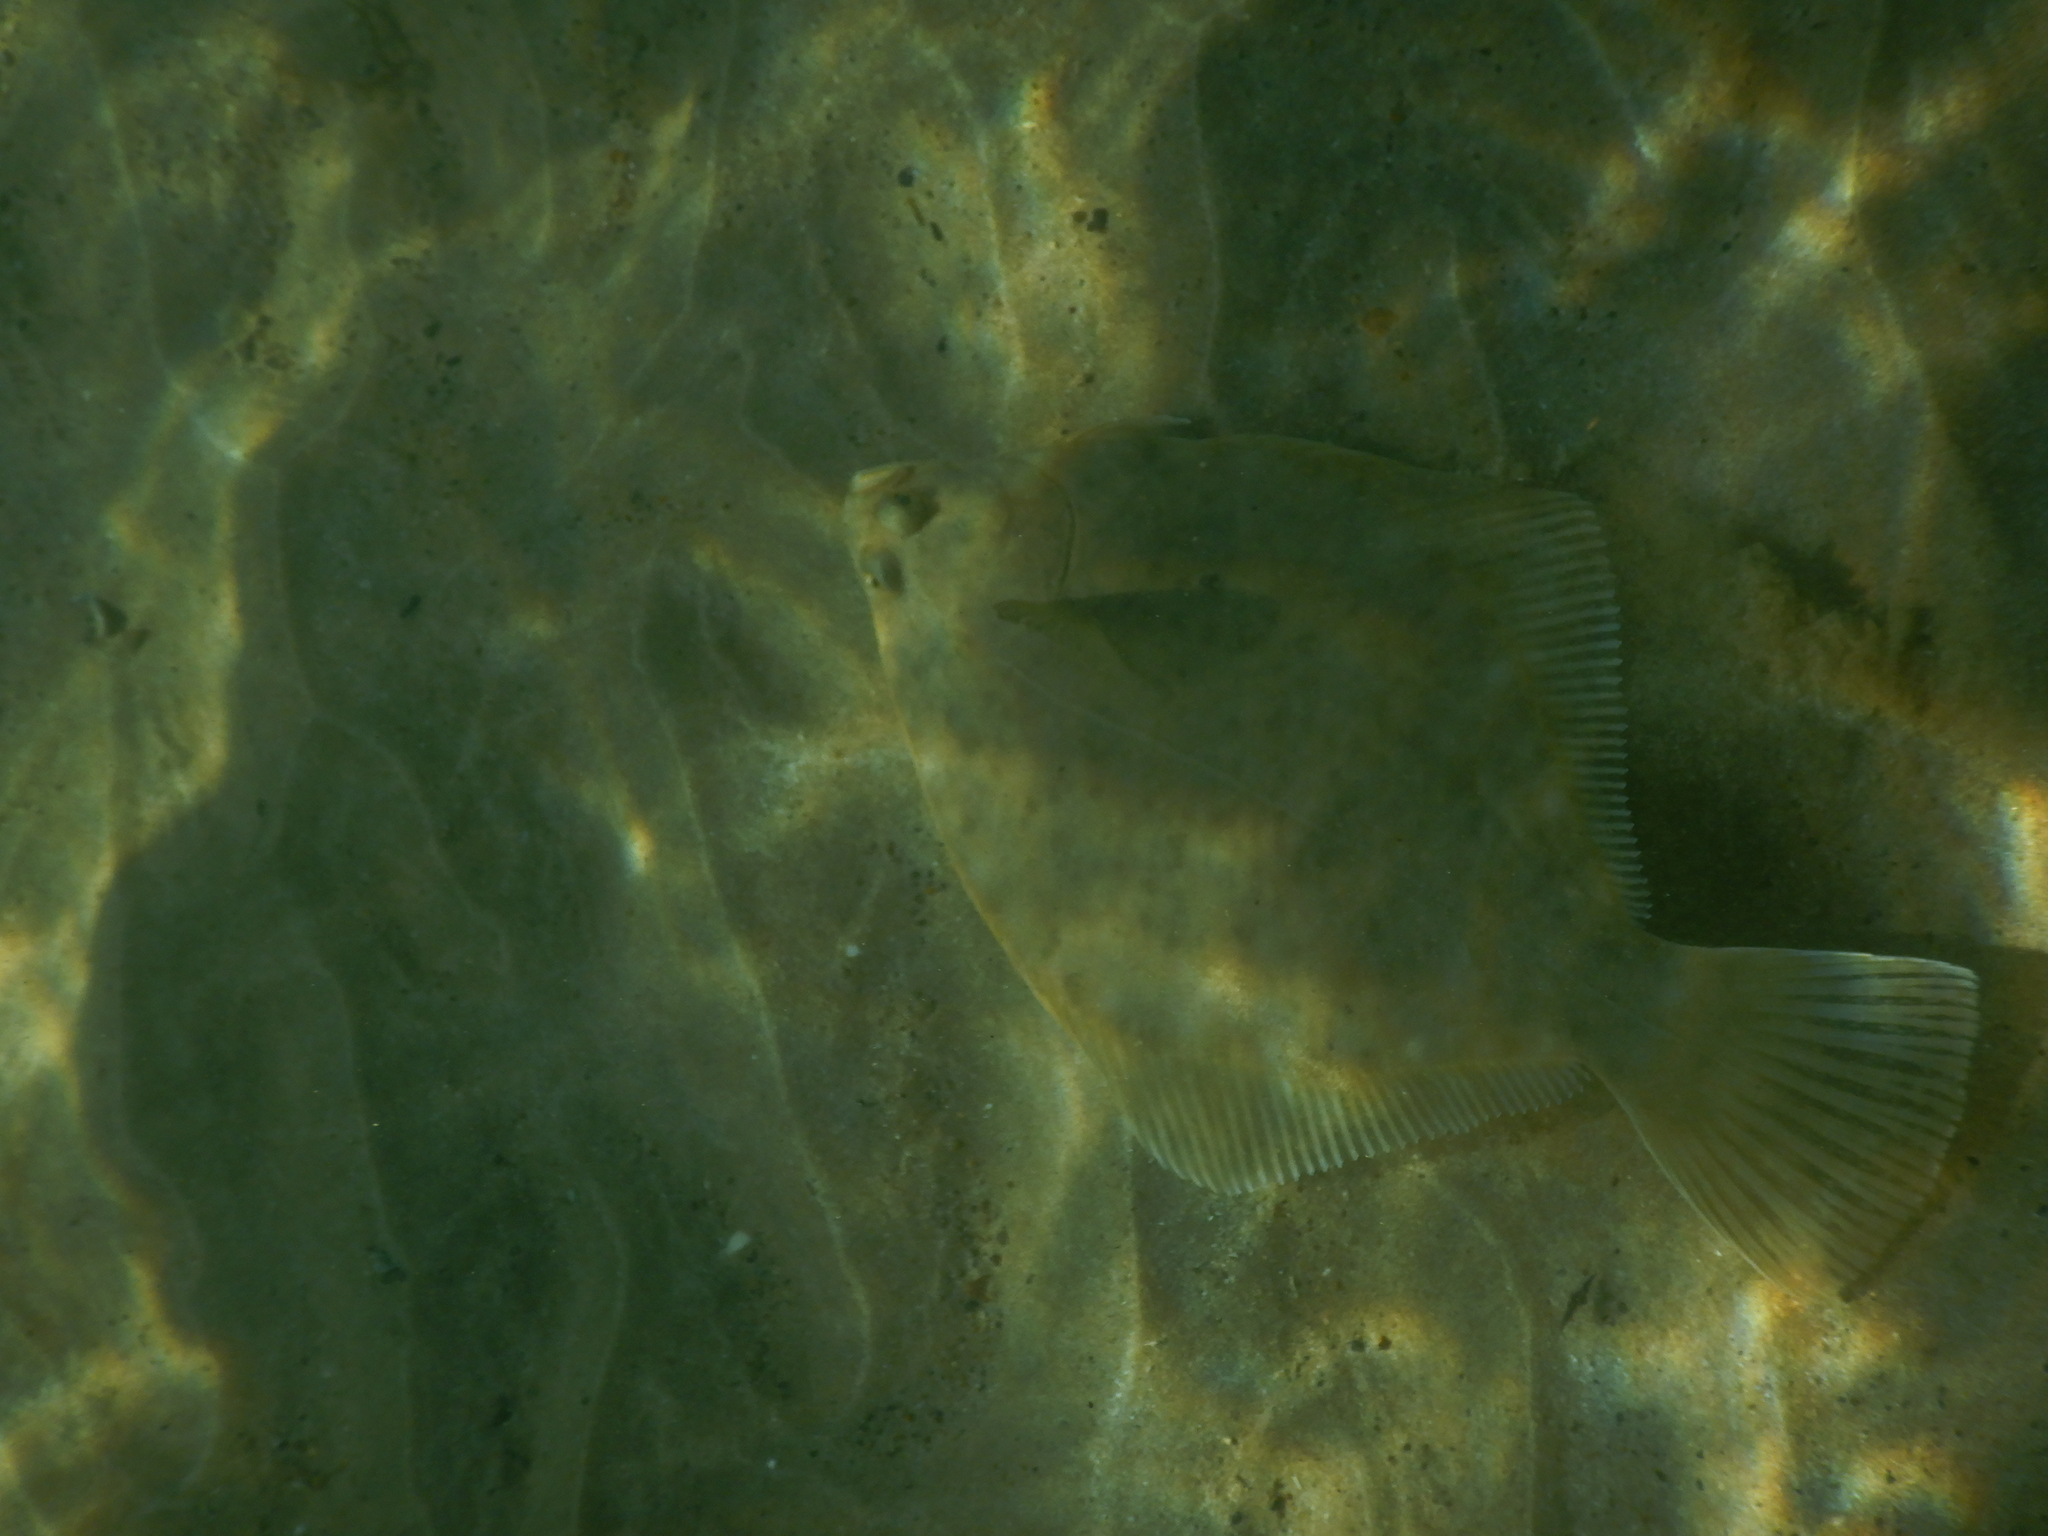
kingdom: Animalia
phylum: Chordata
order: Pleuronectiformes
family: Pleuronectidae
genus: Rhombosolea
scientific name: Rhombosolea plebeia
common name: Dab
